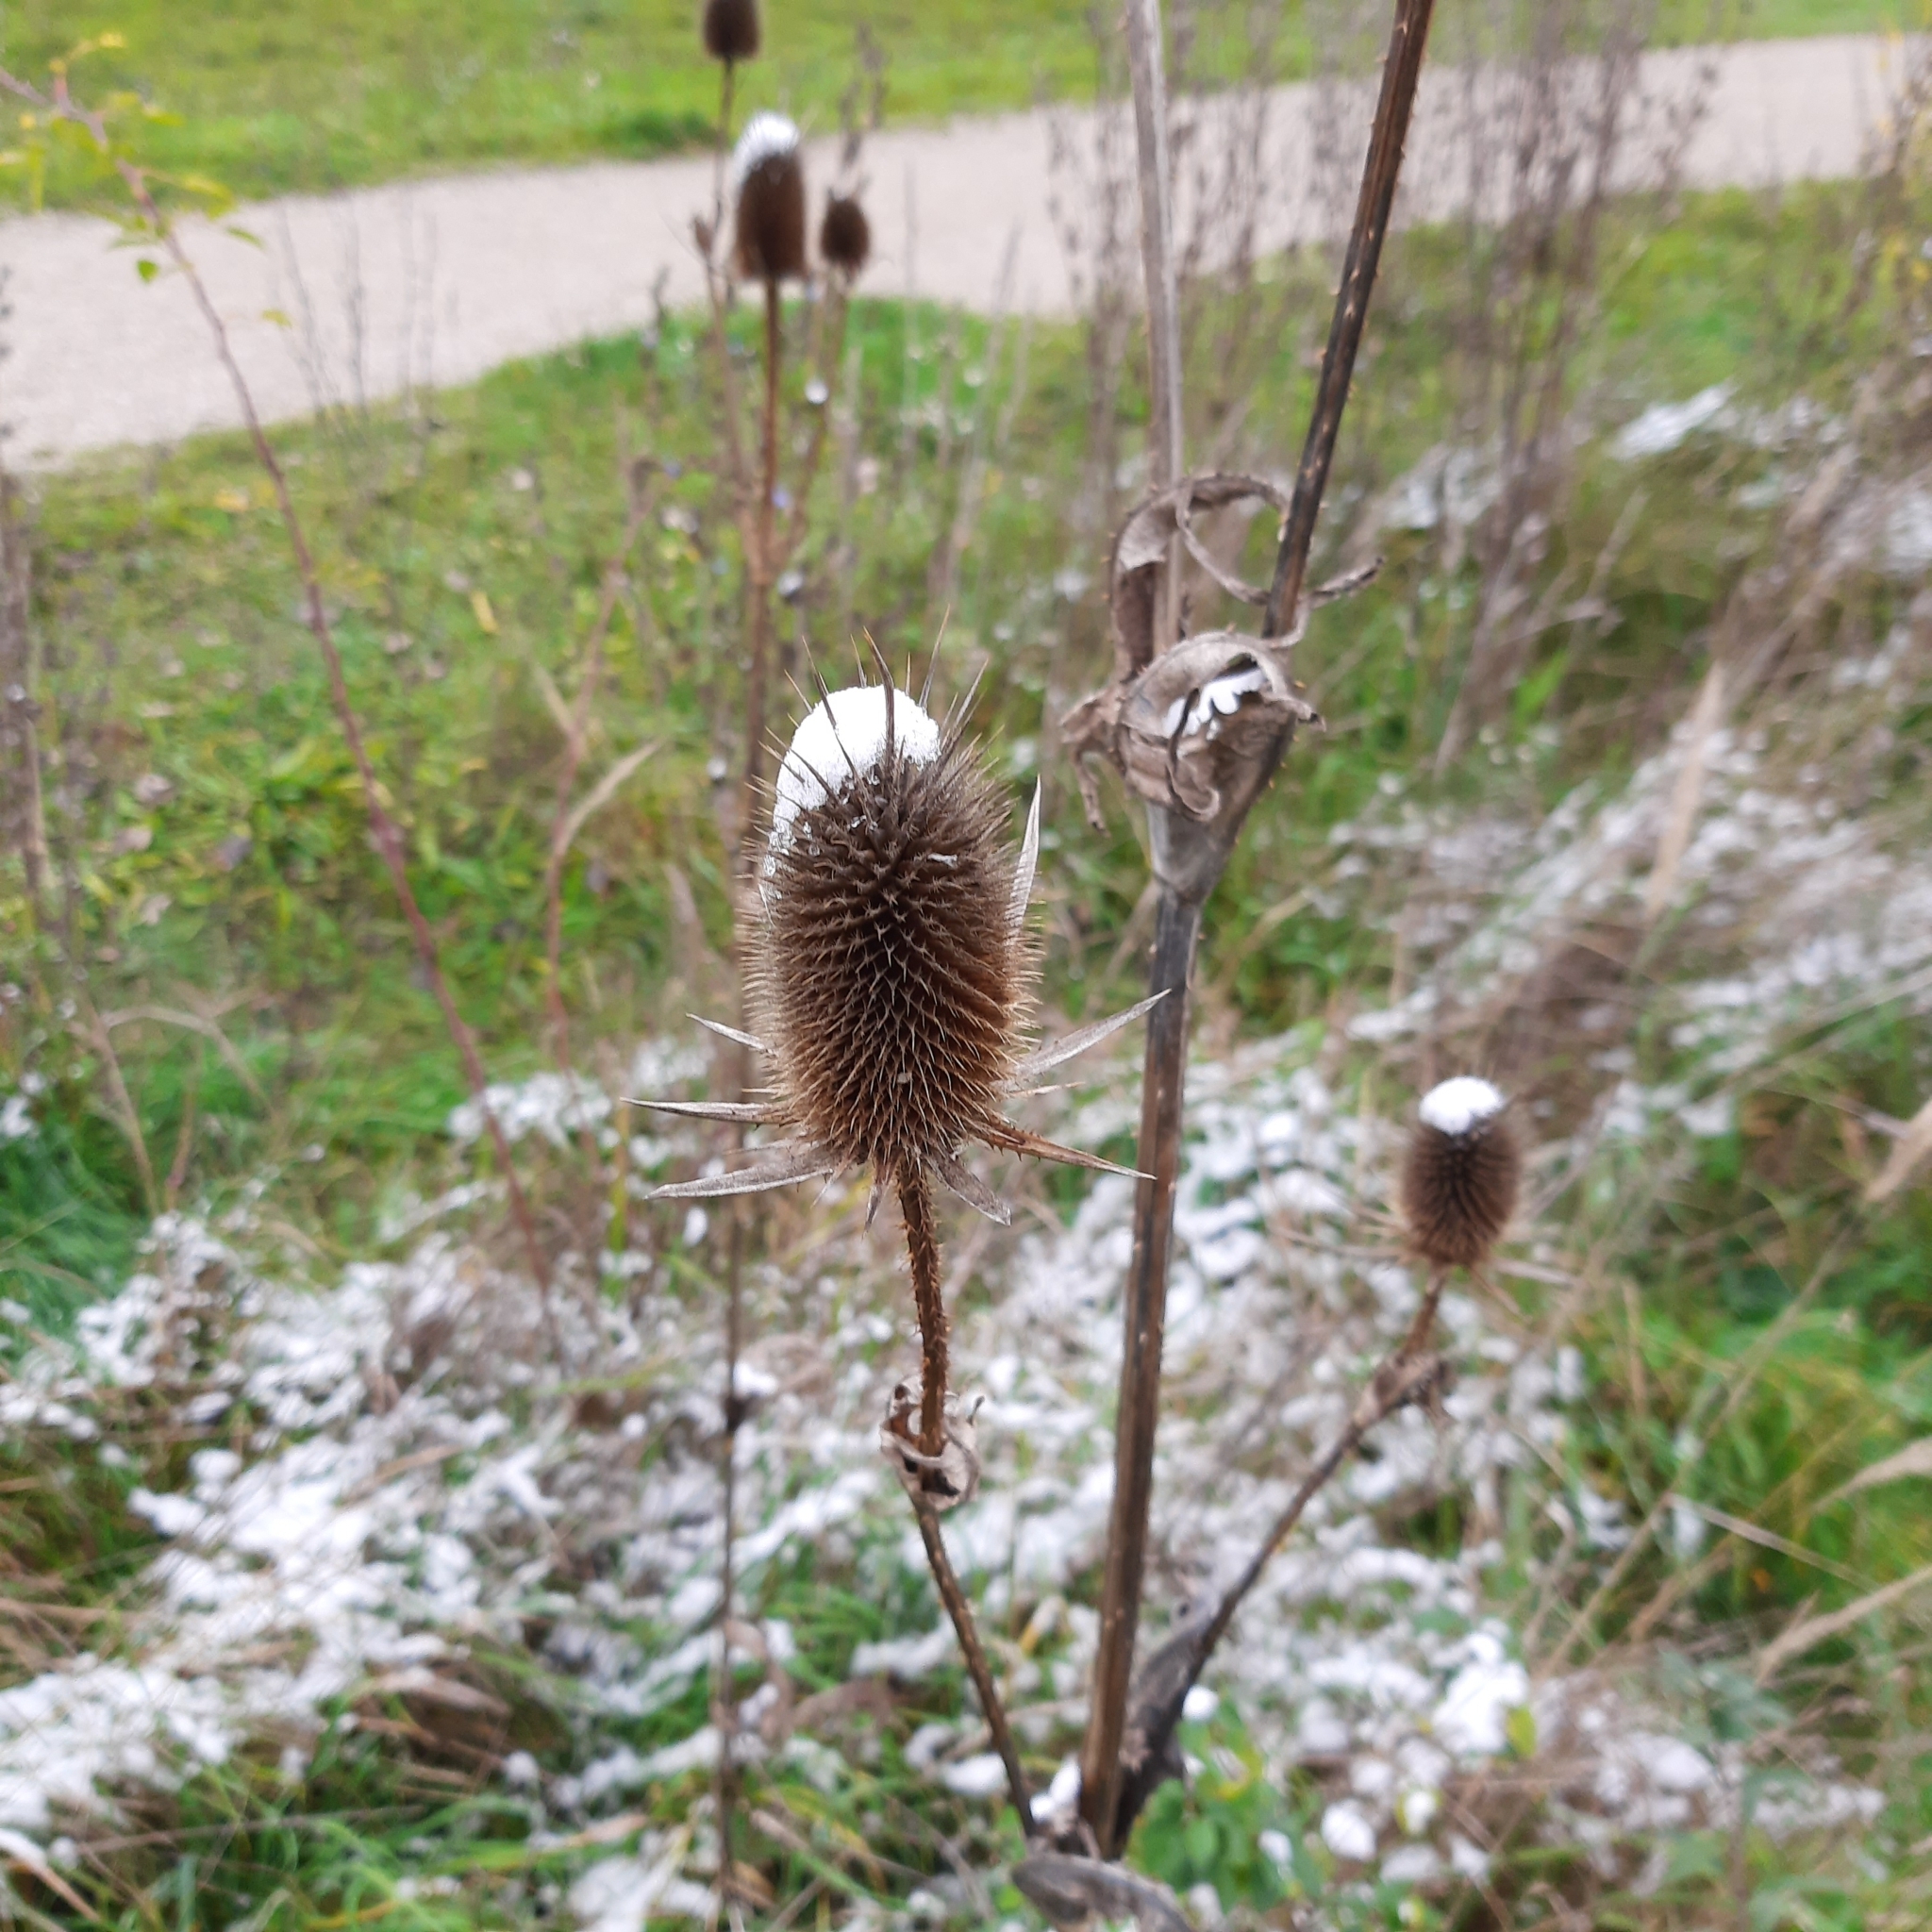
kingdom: Plantae
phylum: Tracheophyta
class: Magnoliopsida
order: Dipsacales
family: Caprifoliaceae
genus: Dipsacus
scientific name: Dipsacus laciniatus
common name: Cut-leaved teasel
